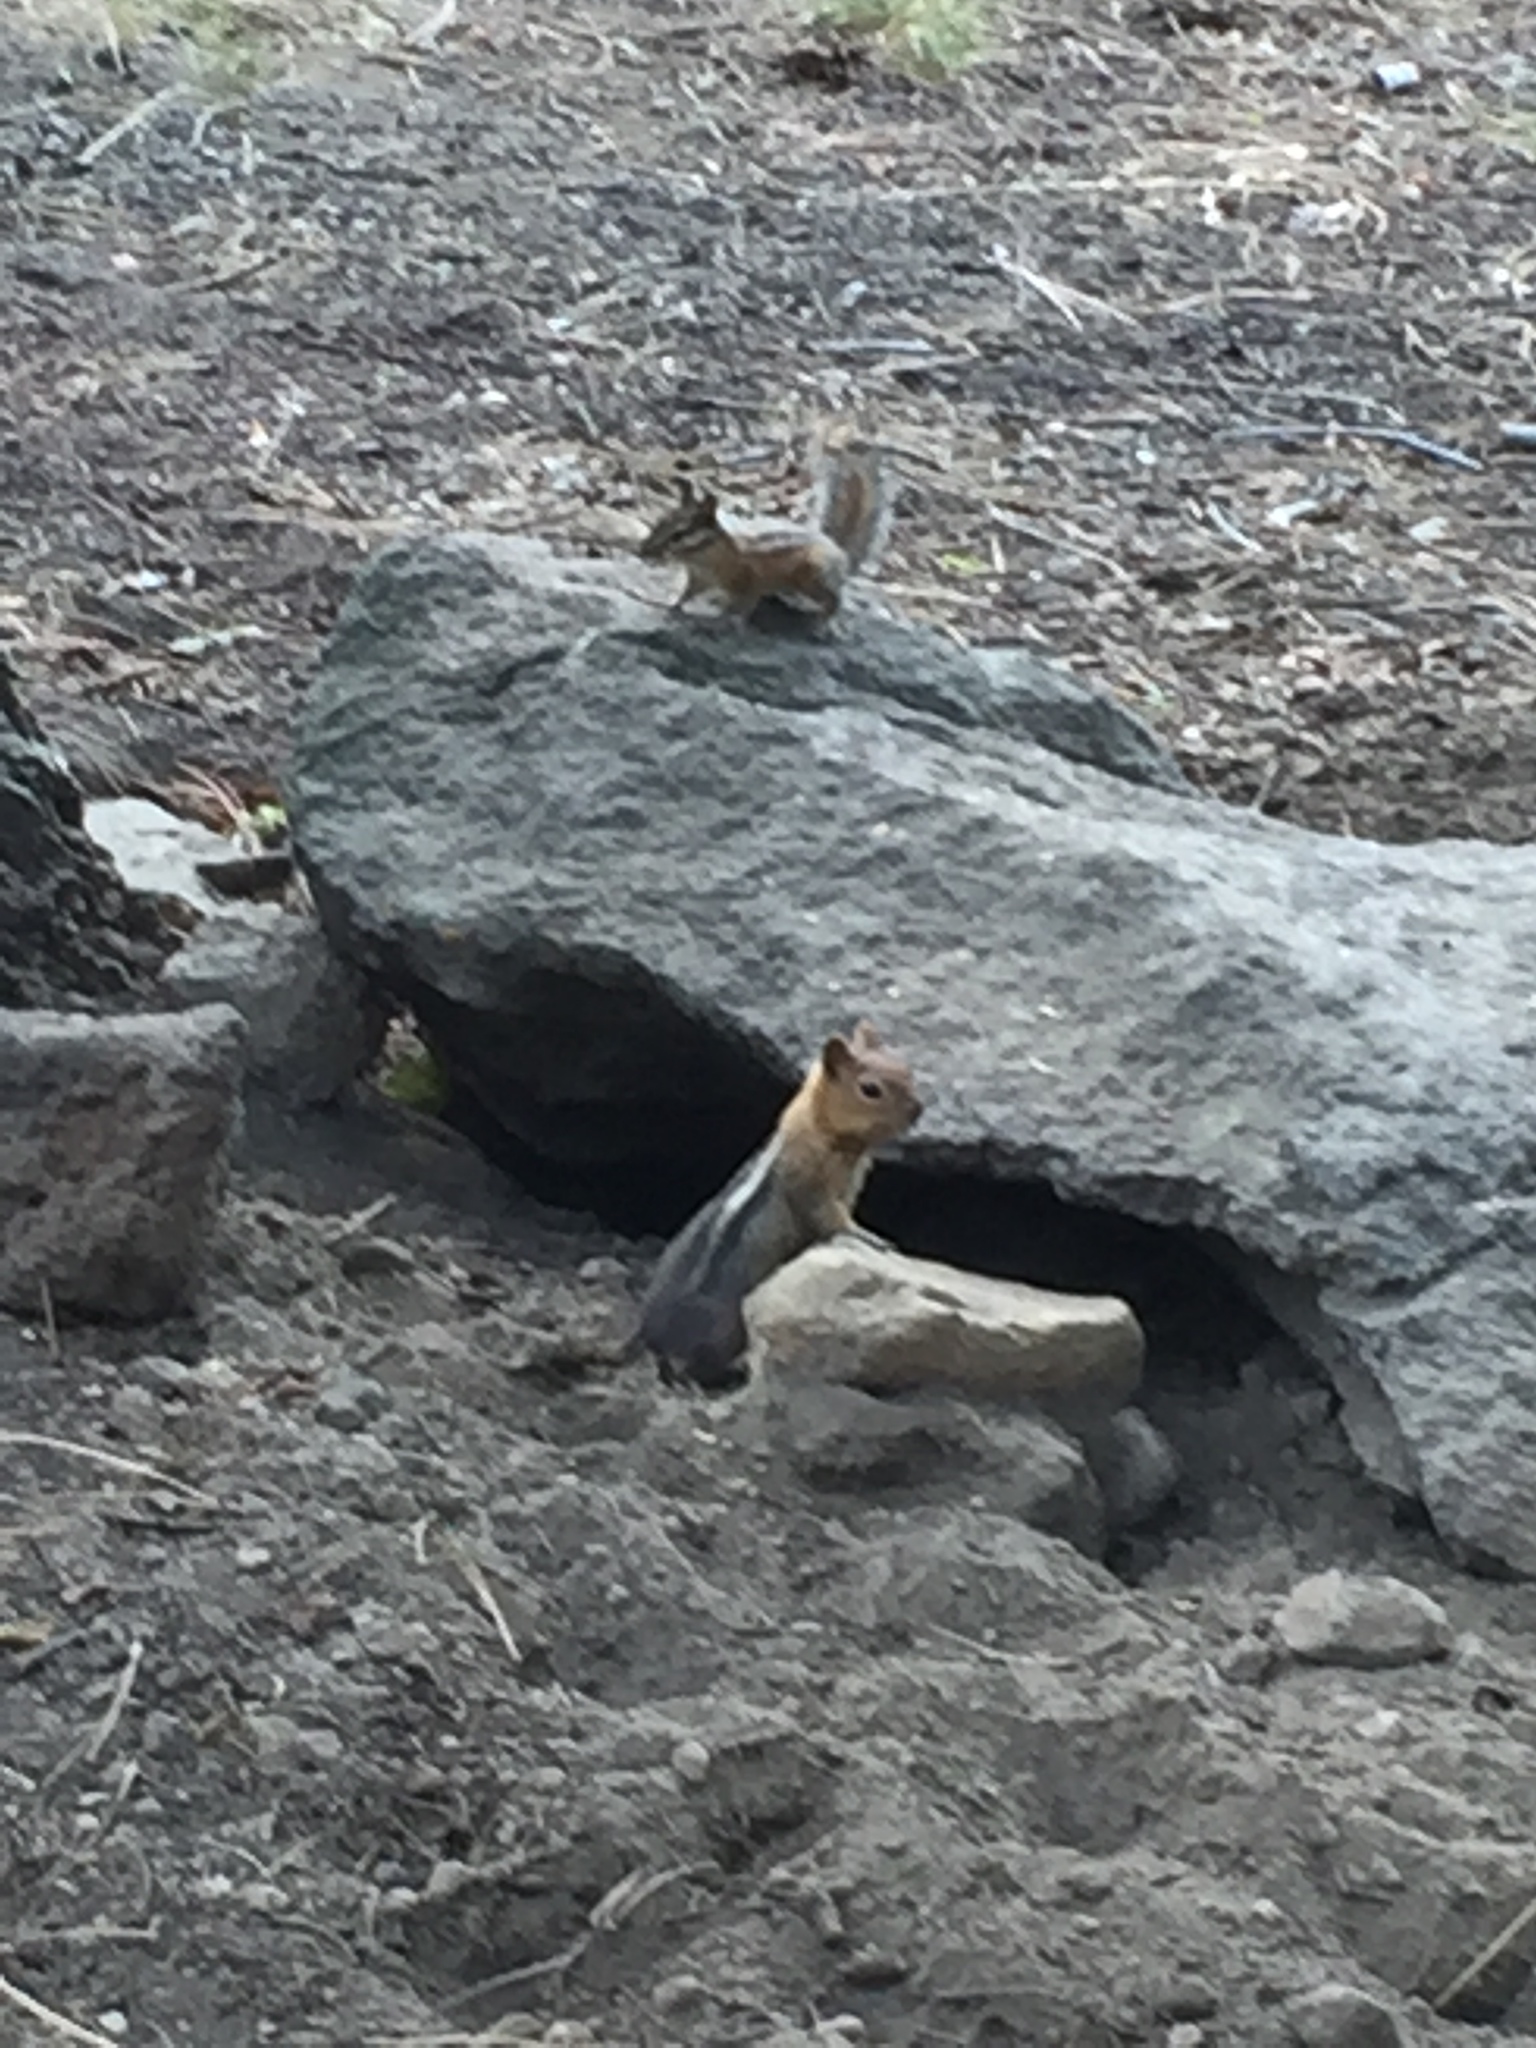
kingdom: Animalia
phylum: Chordata
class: Mammalia
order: Rodentia
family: Sciuridae
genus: Callospermophilus
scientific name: Callospermophilus lateralis
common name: Golden-mantled ground squirrel
